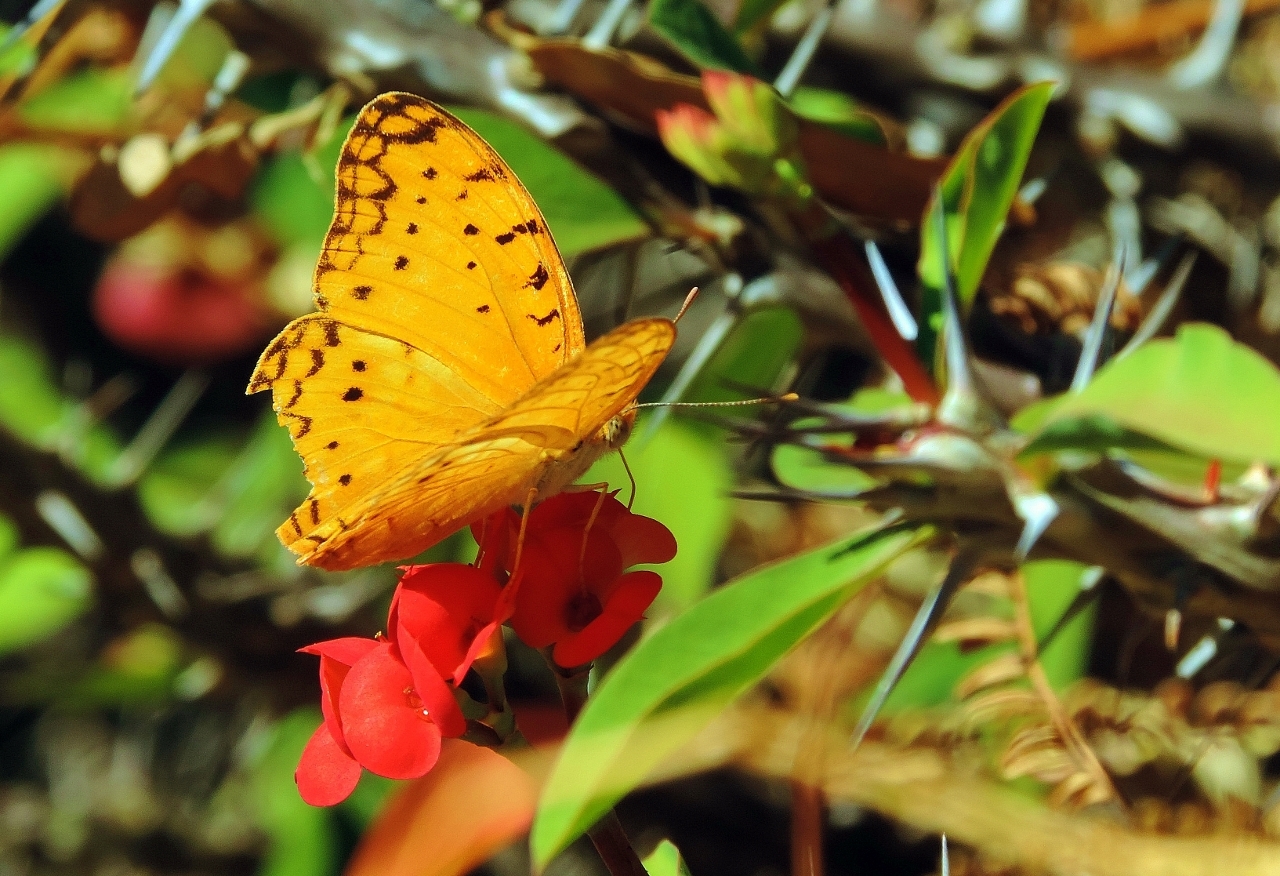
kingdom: Animalia
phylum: Arthropoda
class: Insecta
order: Lepidoptera
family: Nymphalidae
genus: Phalanta
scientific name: Phalanta phalantha
